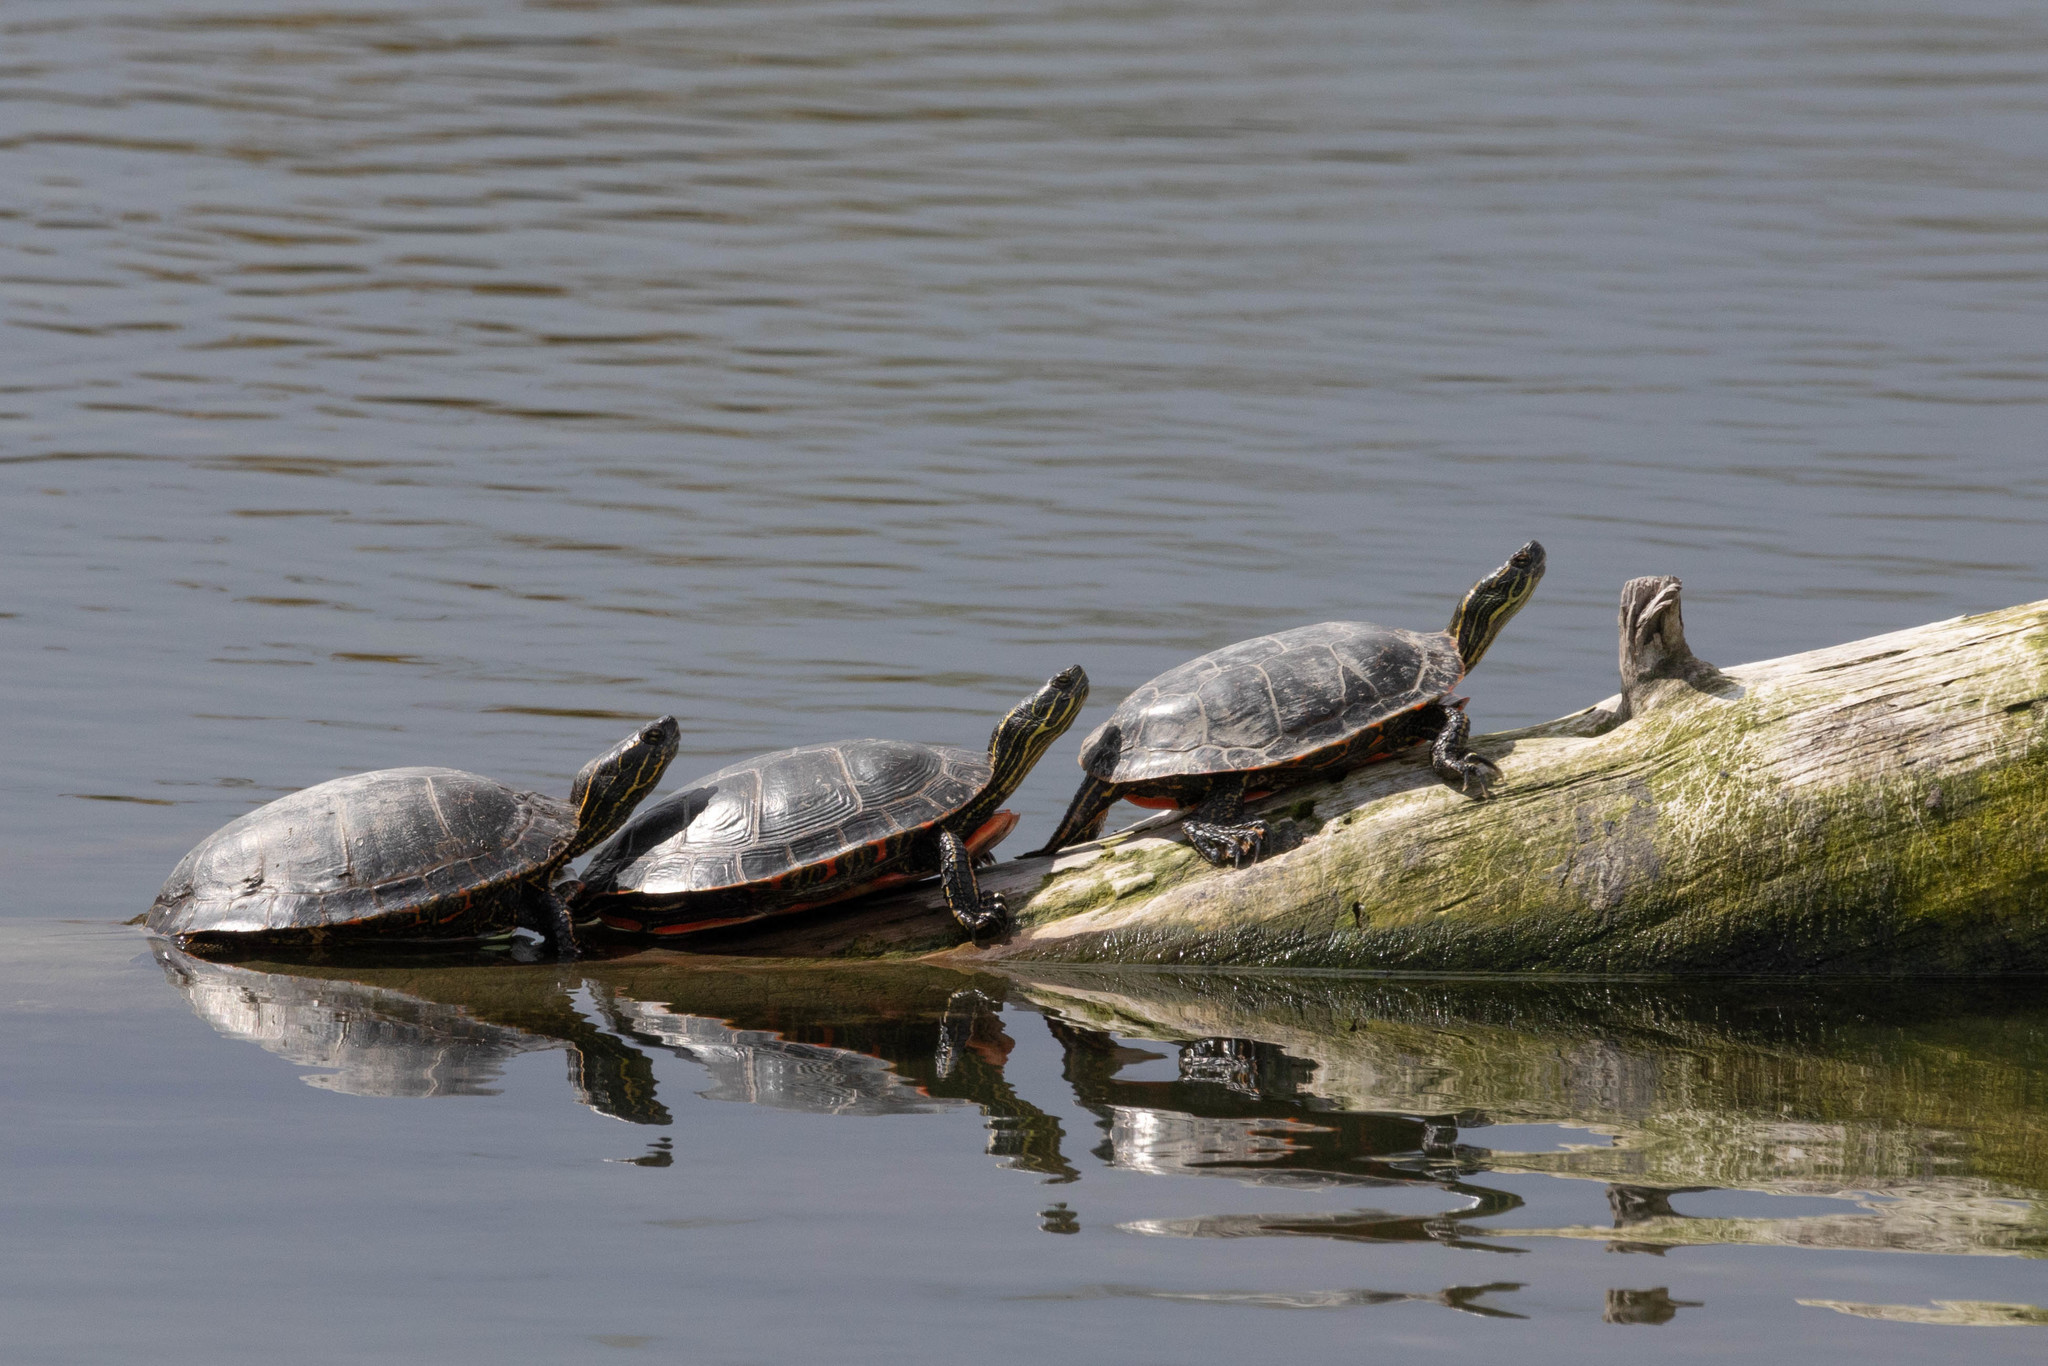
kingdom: Animalia
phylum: Chordata
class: Testudines
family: Emydidae
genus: Chrysemys
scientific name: Chrysemys picta
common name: Painted turtle
